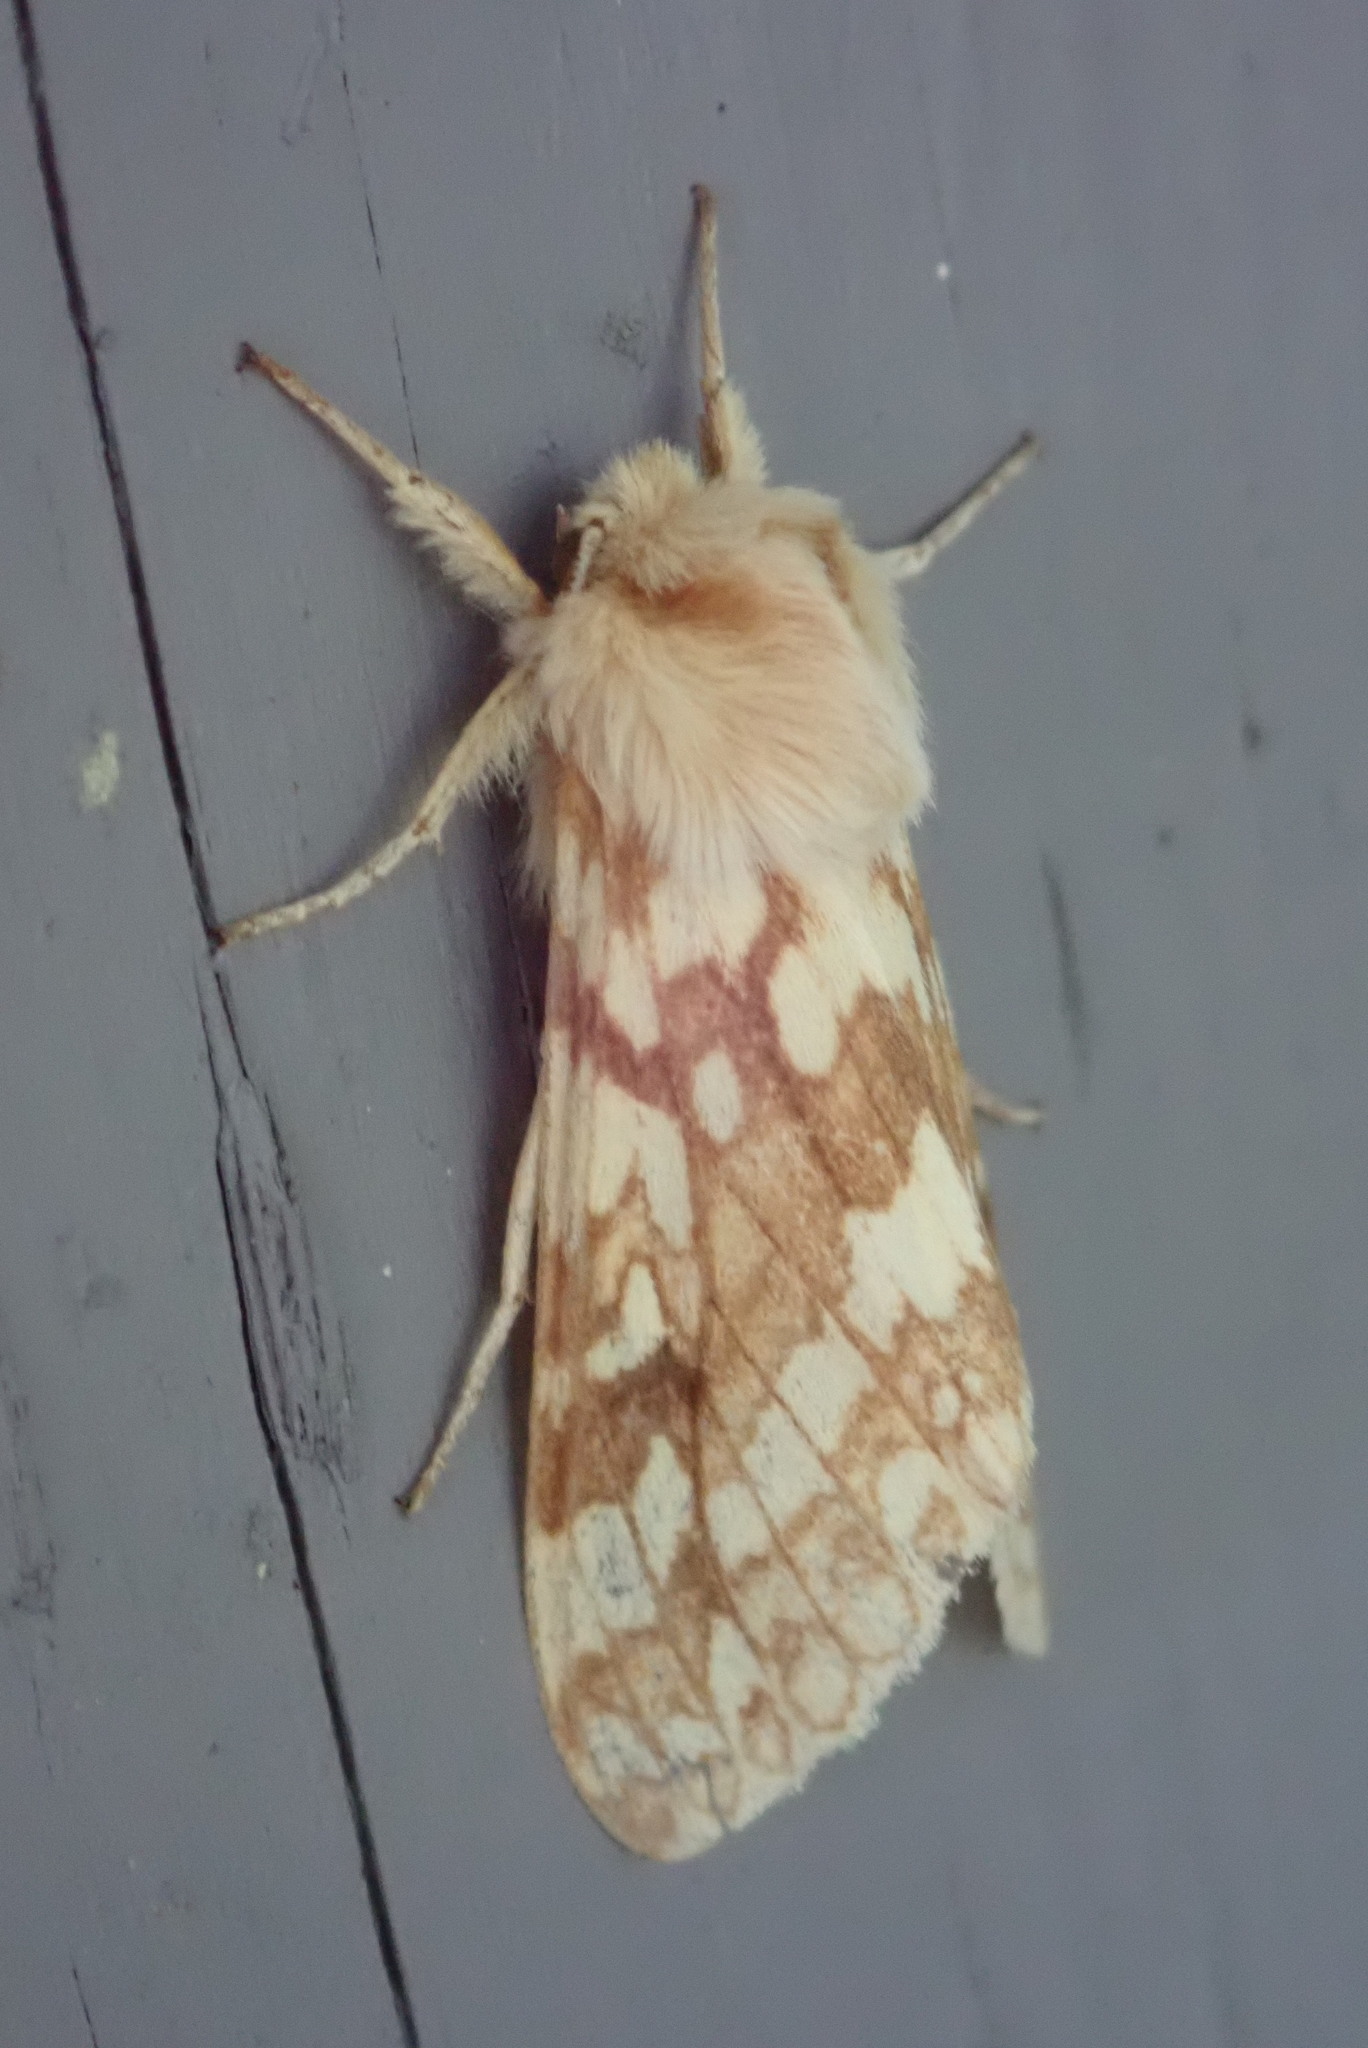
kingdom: Animalia
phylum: Arthropoda
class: Insecta
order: Lepidoptera
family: Erebidae
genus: Lophocampa
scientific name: Lophocampa maculata
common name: Spotted tussock moth
